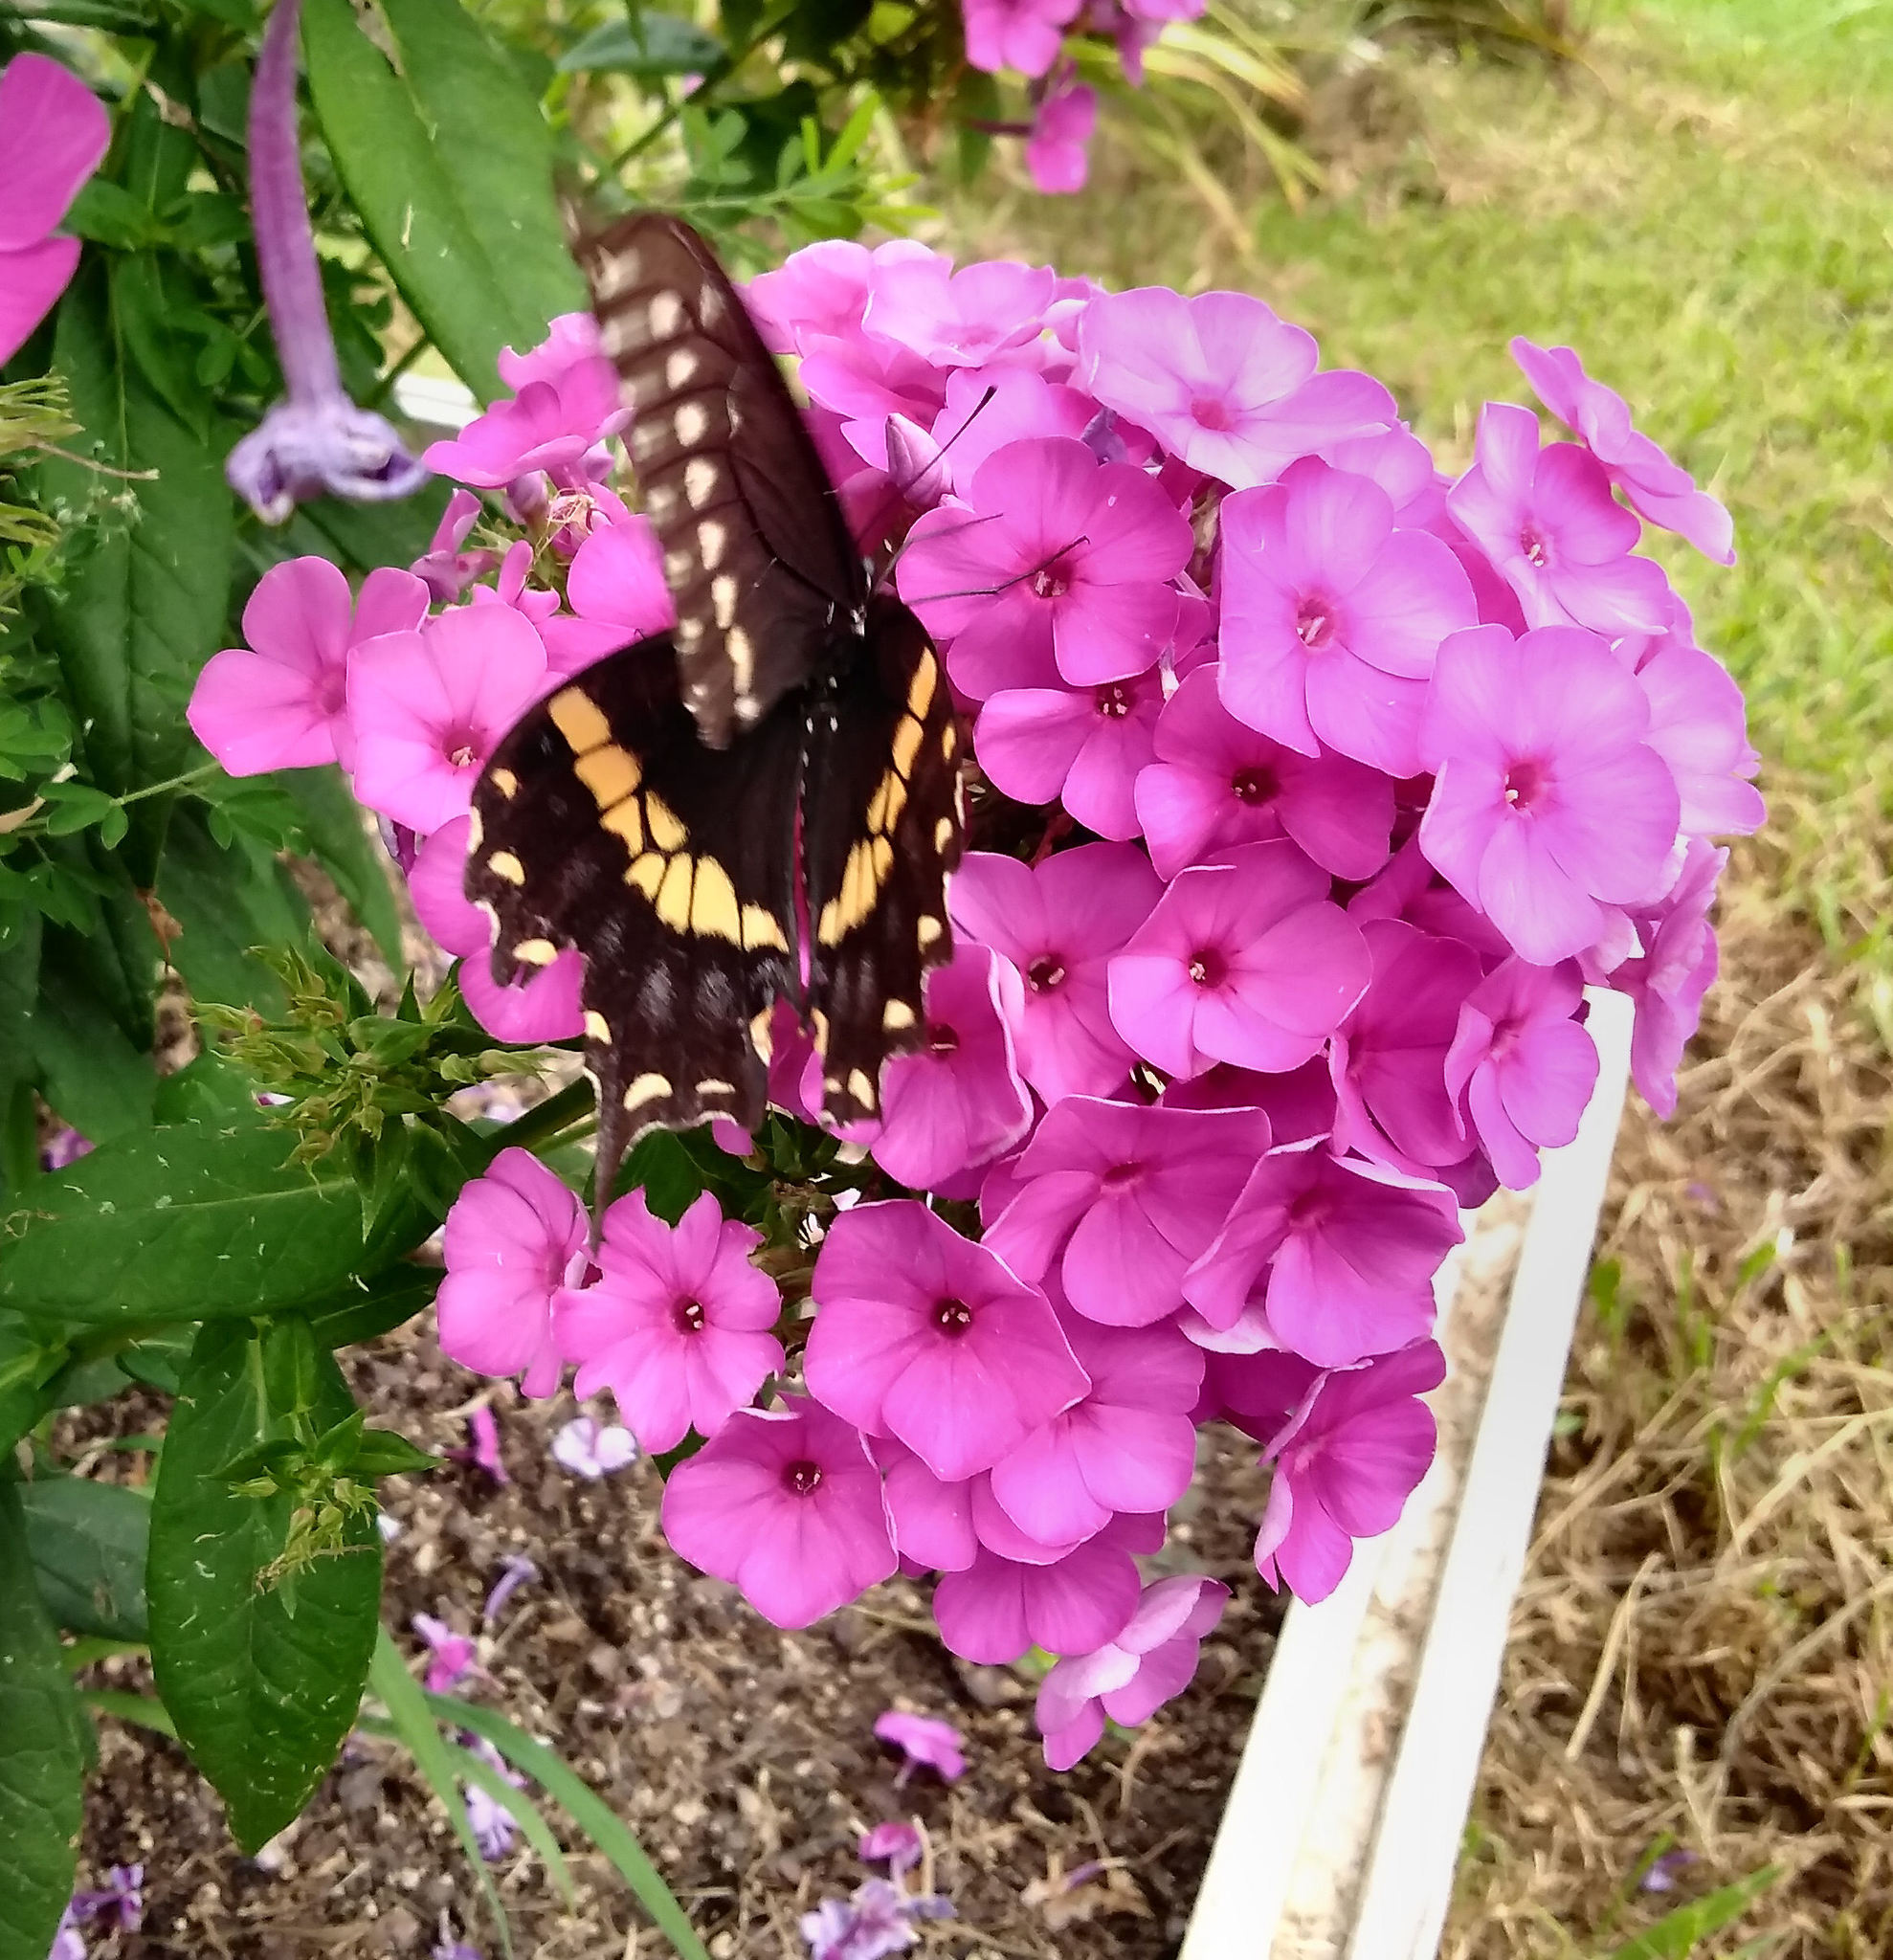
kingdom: Animalia
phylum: Arthropoda
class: Insecta
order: Lepidoptera
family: Papilionidae
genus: Papilio
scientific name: Papilio polyxenes
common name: Black swallowtail
